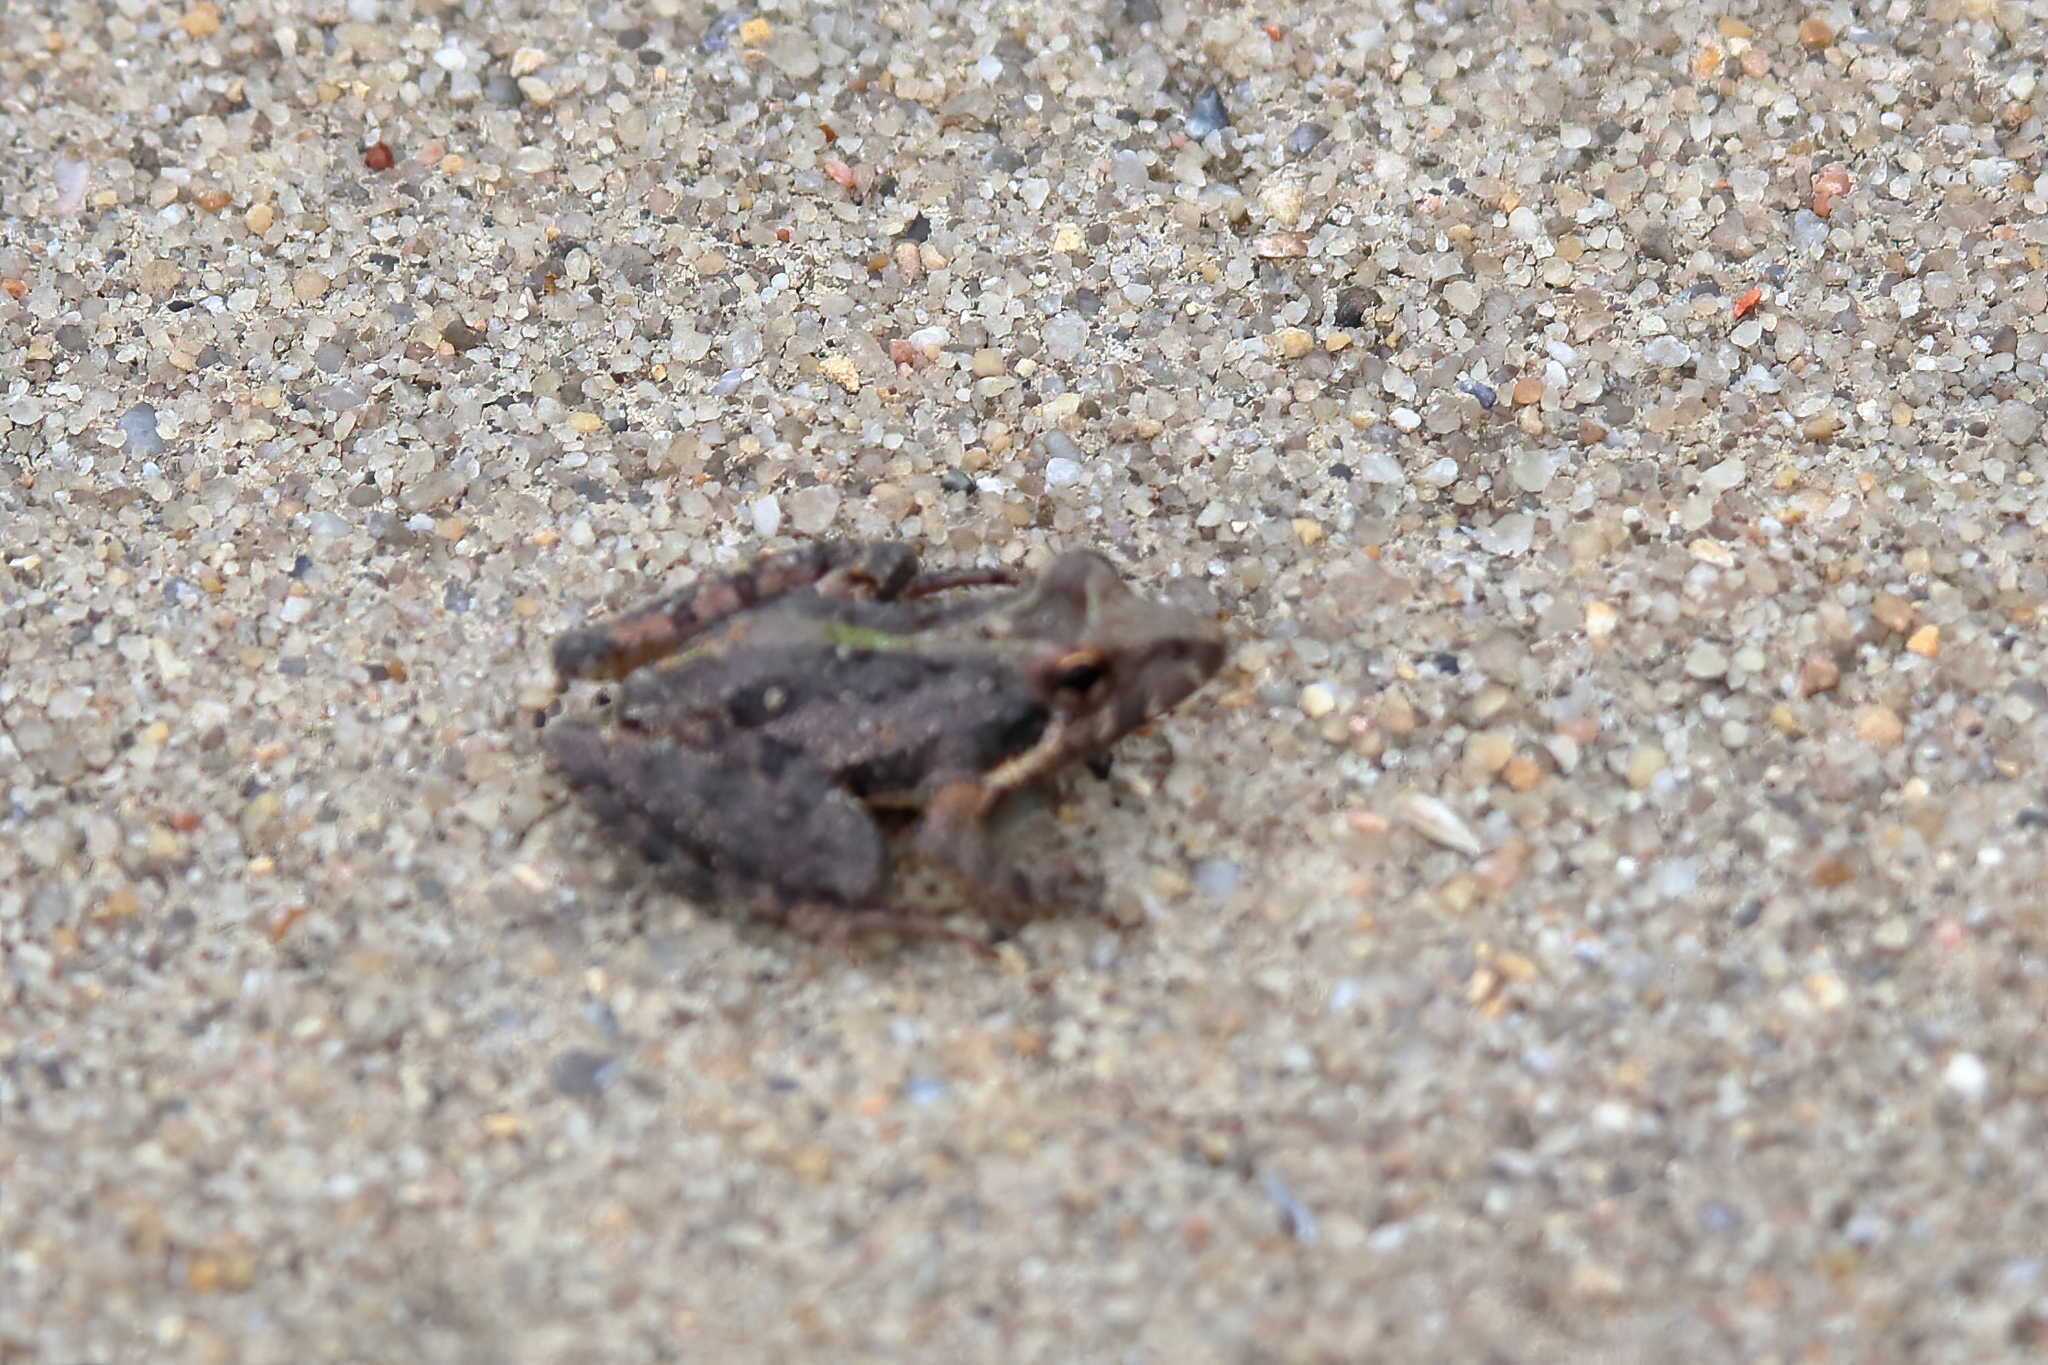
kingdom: Animalia
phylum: Chordata
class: Amphibia
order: Anura
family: Hylidae
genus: Acris
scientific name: Acris gryllus
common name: Southern cricket frog
